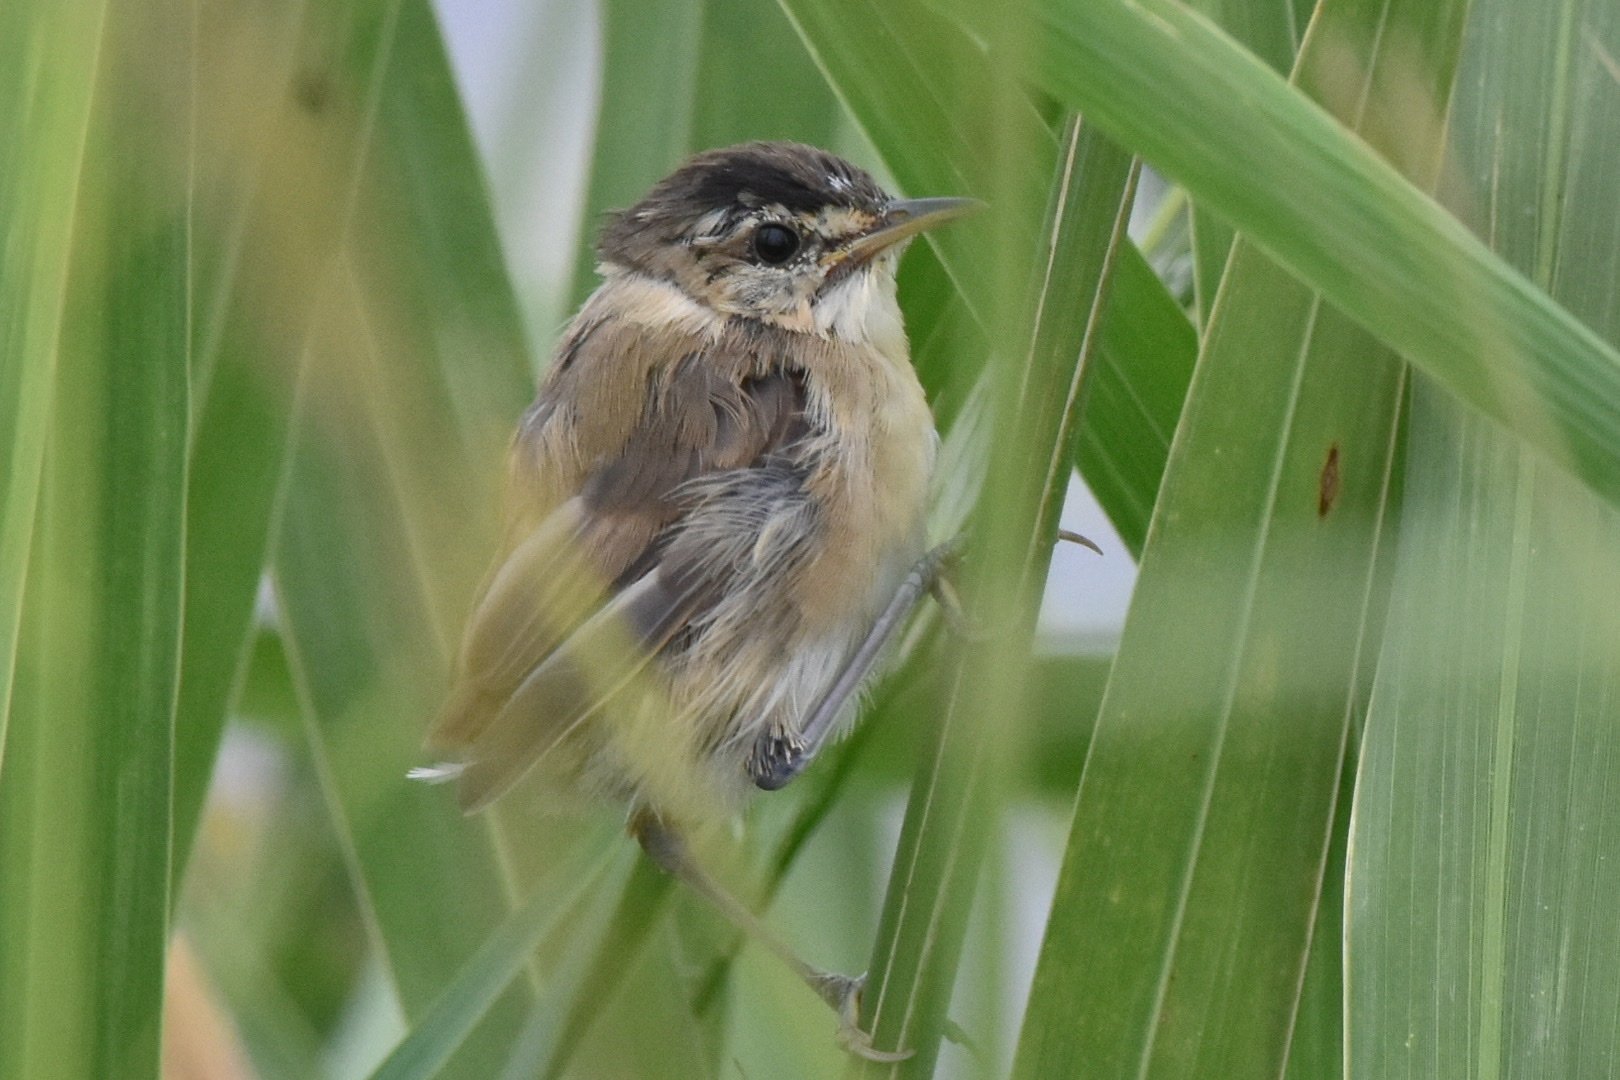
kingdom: Animalia
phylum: Chordata
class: Aves
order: Passeriformes
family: Acrocephalidae
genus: Acrocephalus
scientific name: Acrocephalus bistrigiceps
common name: Black-browed reed warbler
